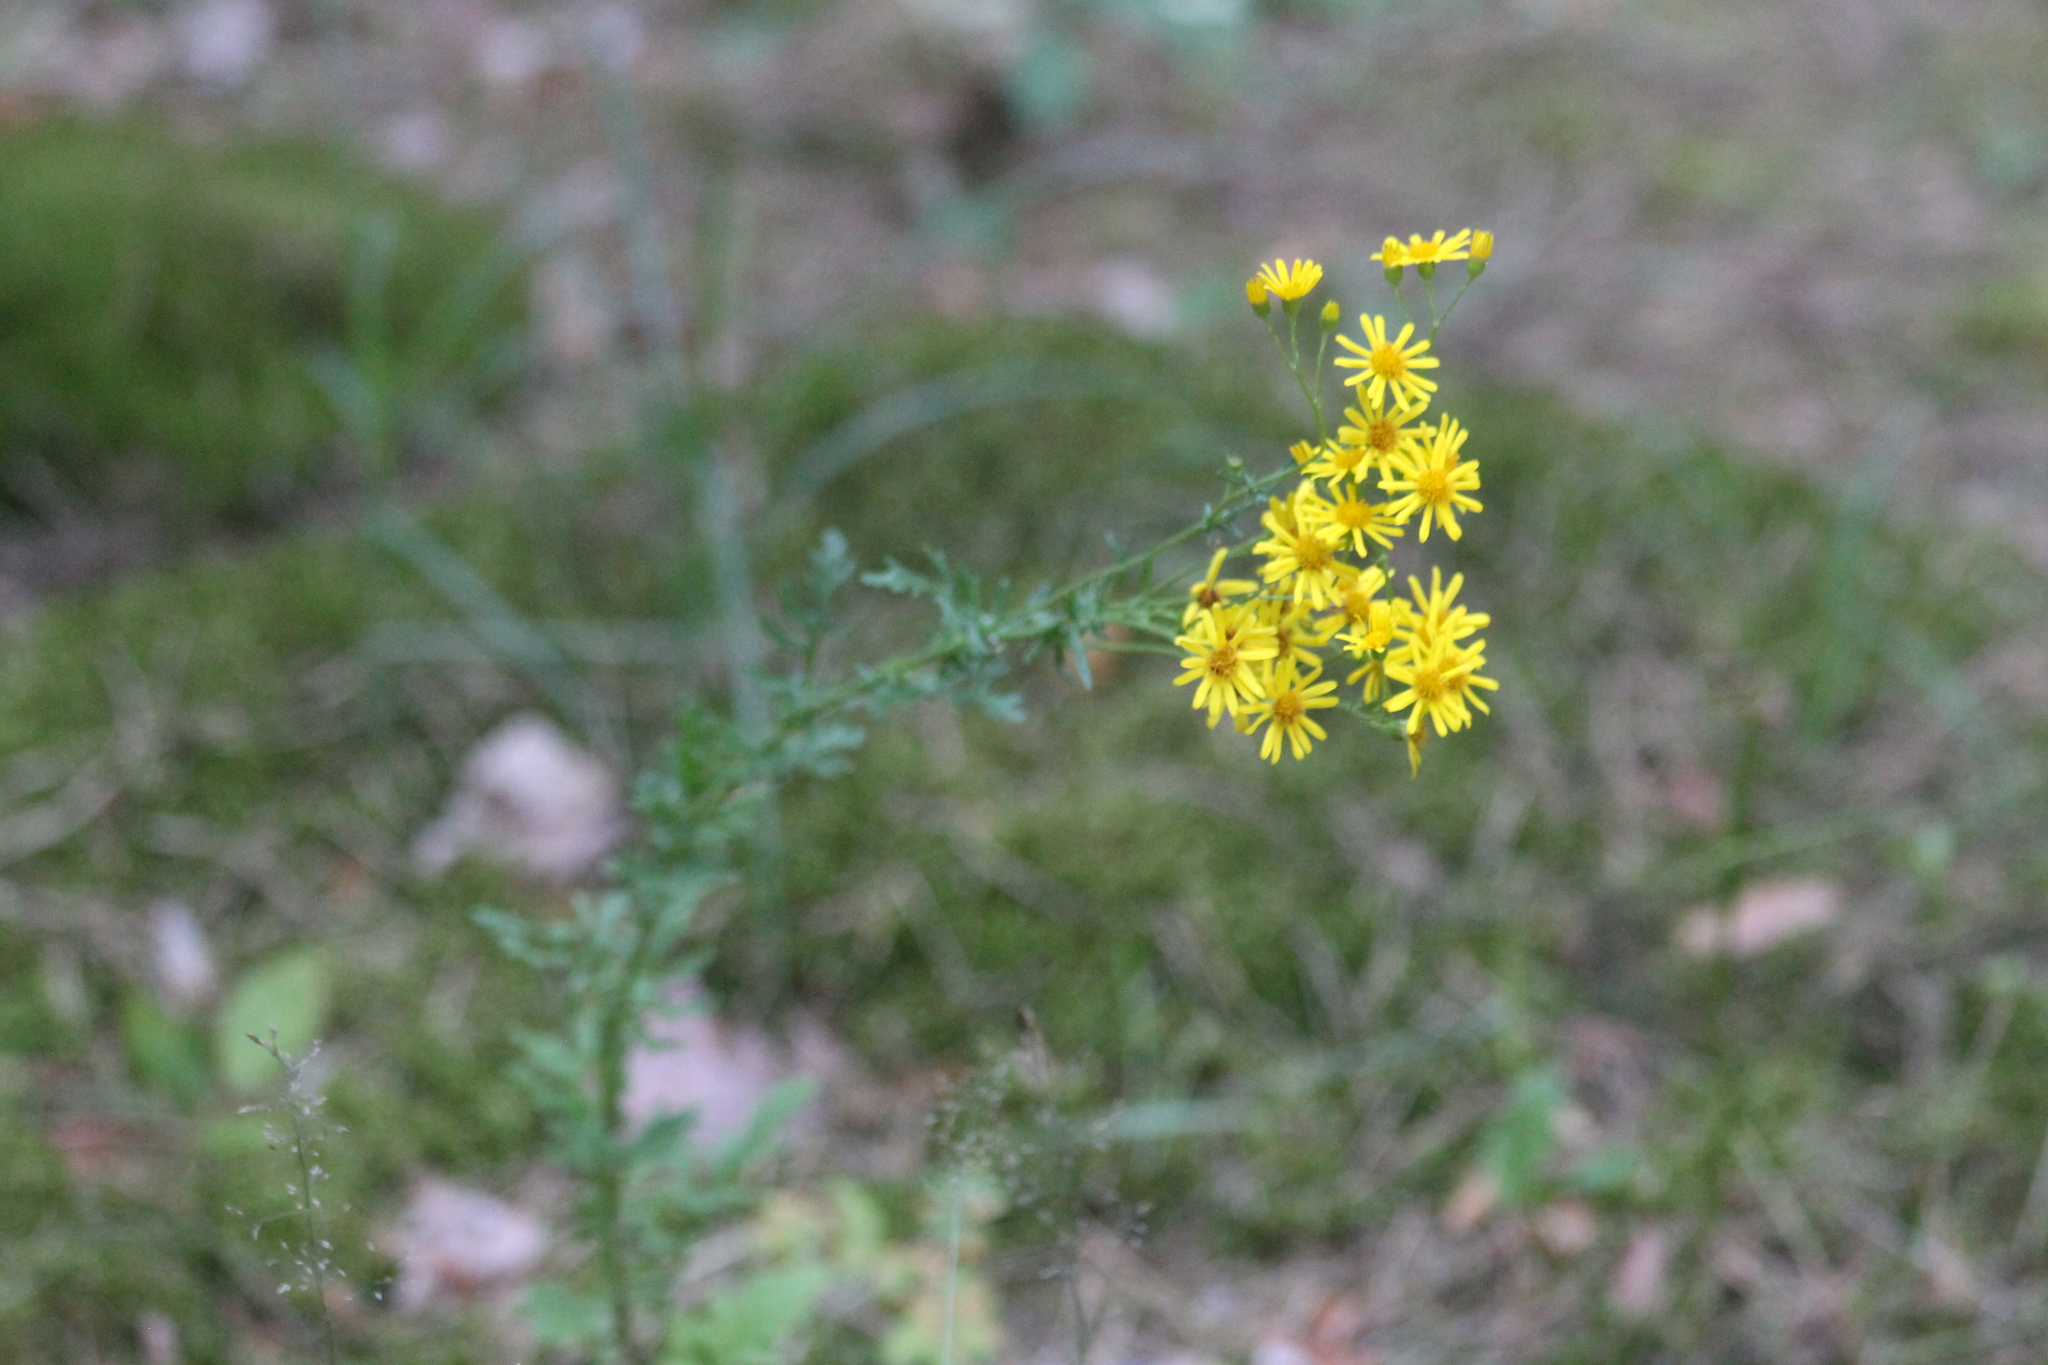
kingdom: Plantae
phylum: Tracheophyta
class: Magnoliopsida
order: Asterales
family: Asteraceae
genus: Jacobaea
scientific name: Jacobaea vulgaris
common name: Stinking willie
